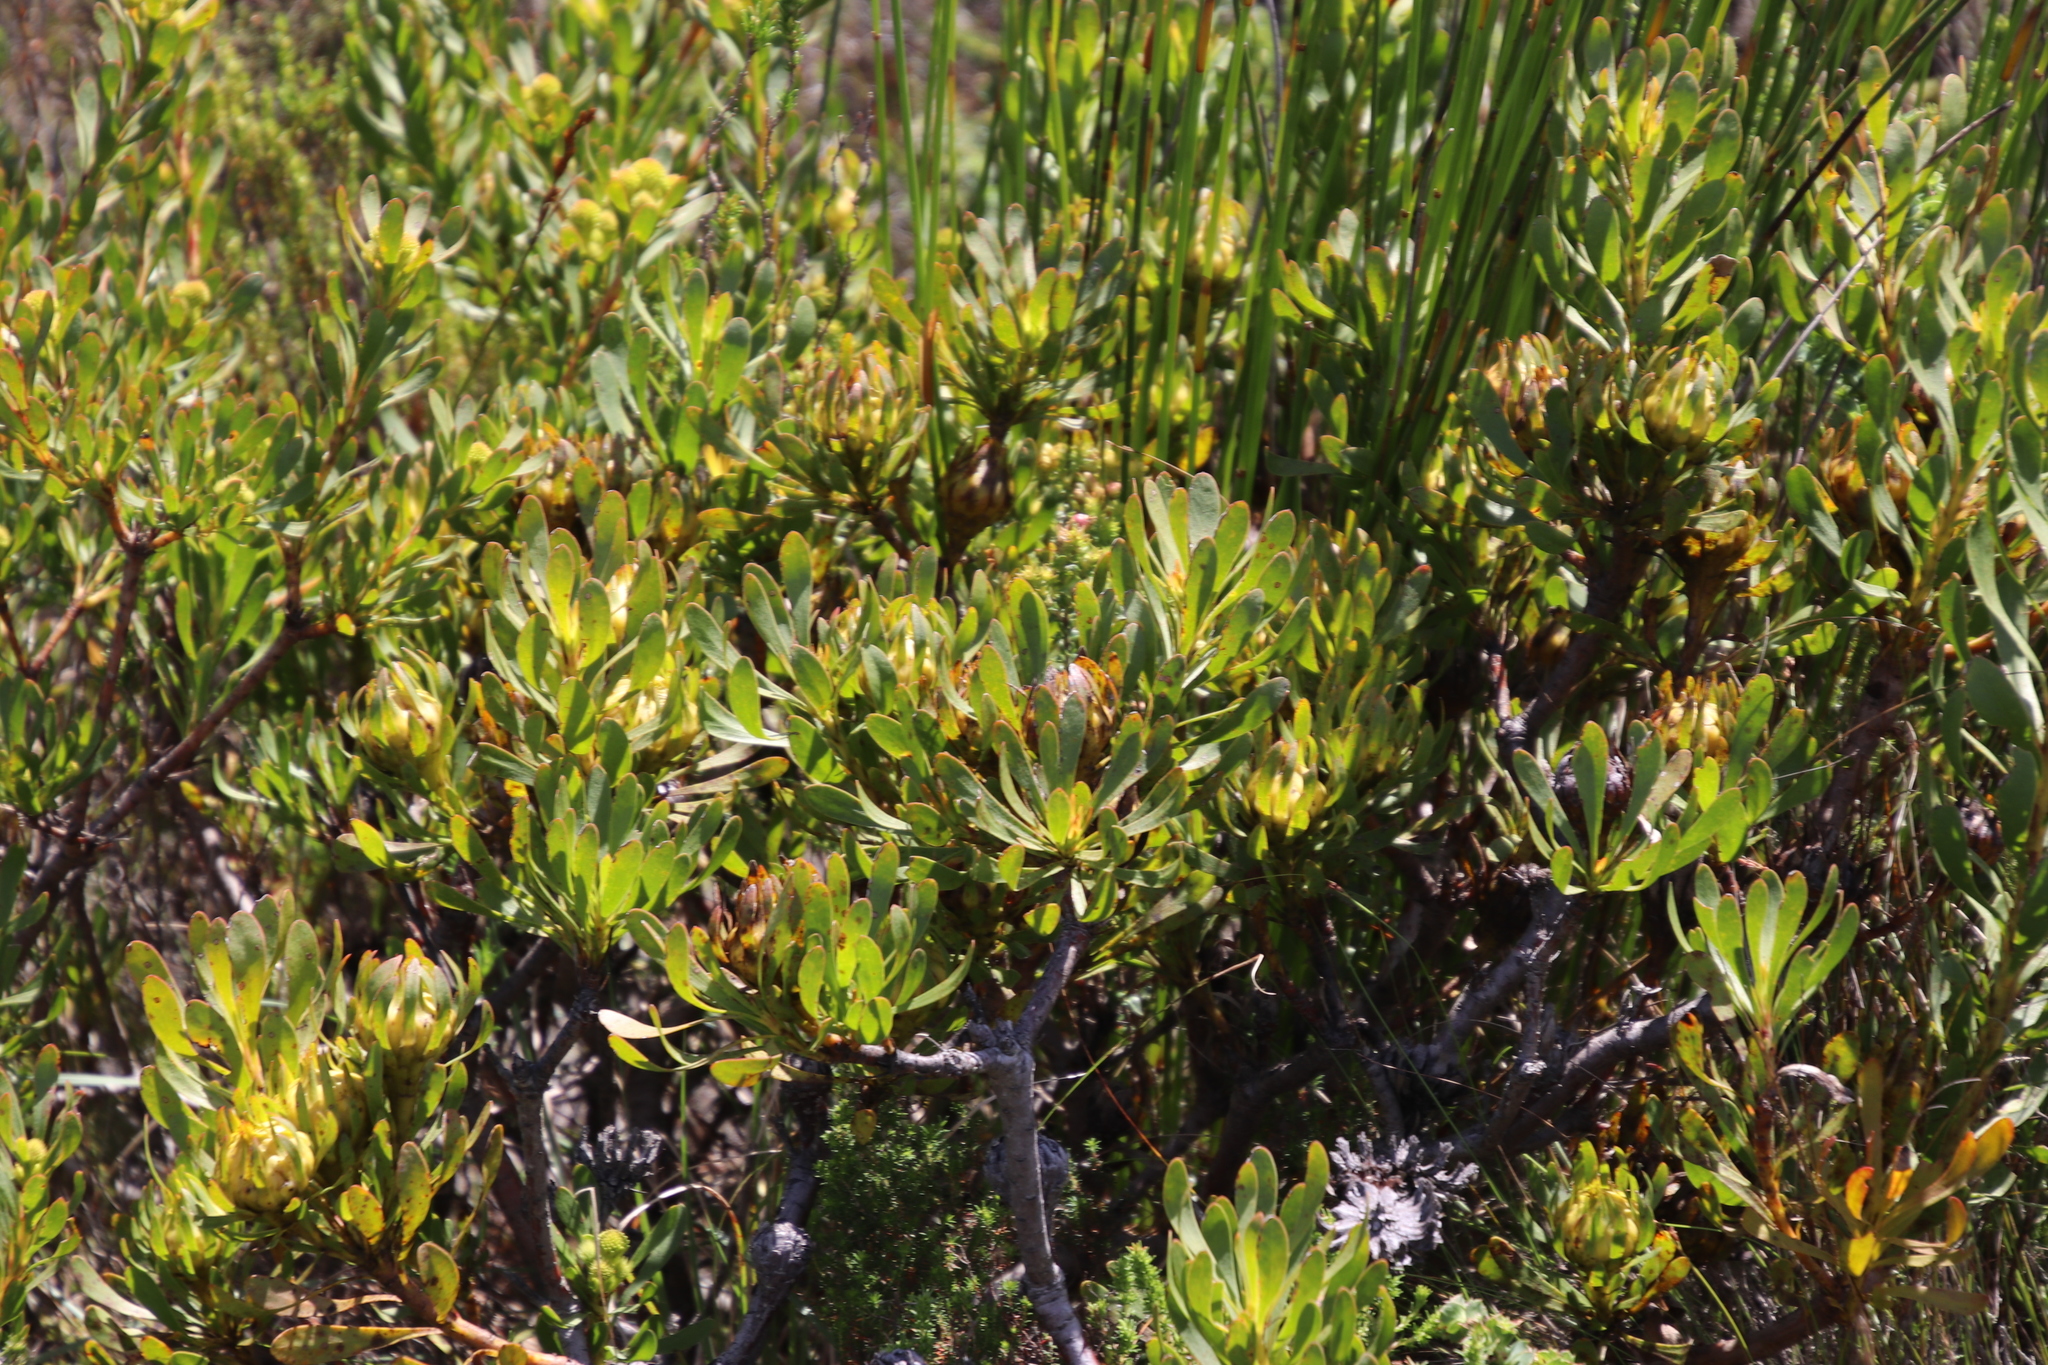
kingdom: Plantae
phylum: Tracheophyta
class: Magnoliopsida
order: Proteales
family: Proteaceae
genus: Aulax
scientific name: Aulax umbellata
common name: Broad-leaf featherbush
